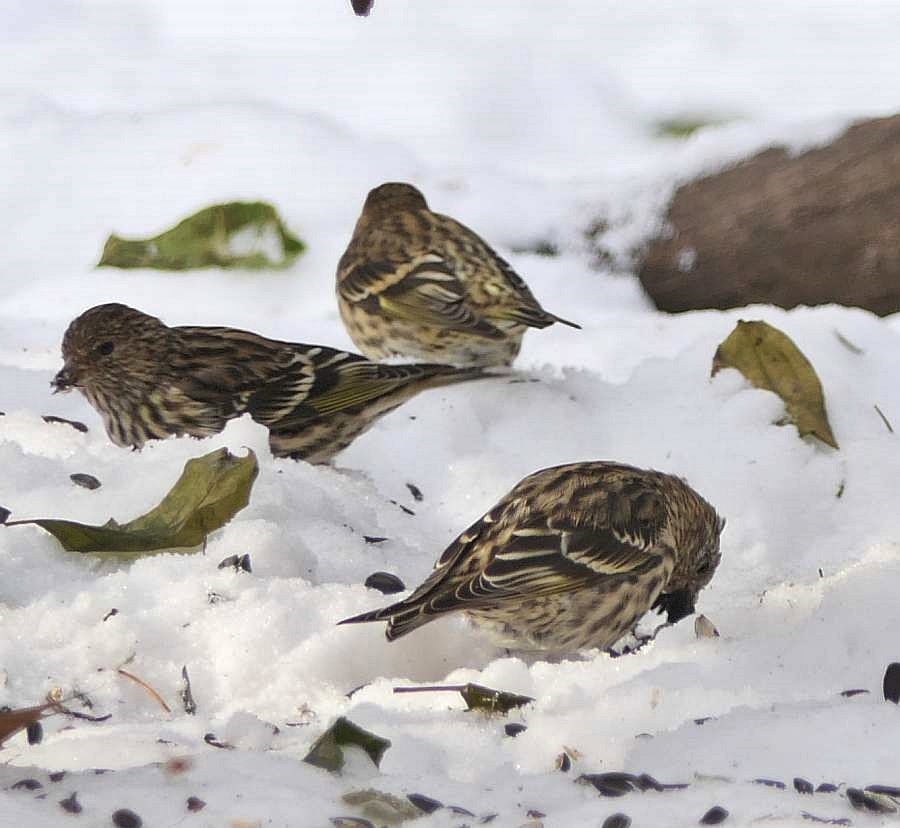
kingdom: Animalia
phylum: Chordata
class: Aves
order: Passeriformes
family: Fringillidae
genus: Spinus
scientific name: Spinus pinus
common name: Pine siskin
